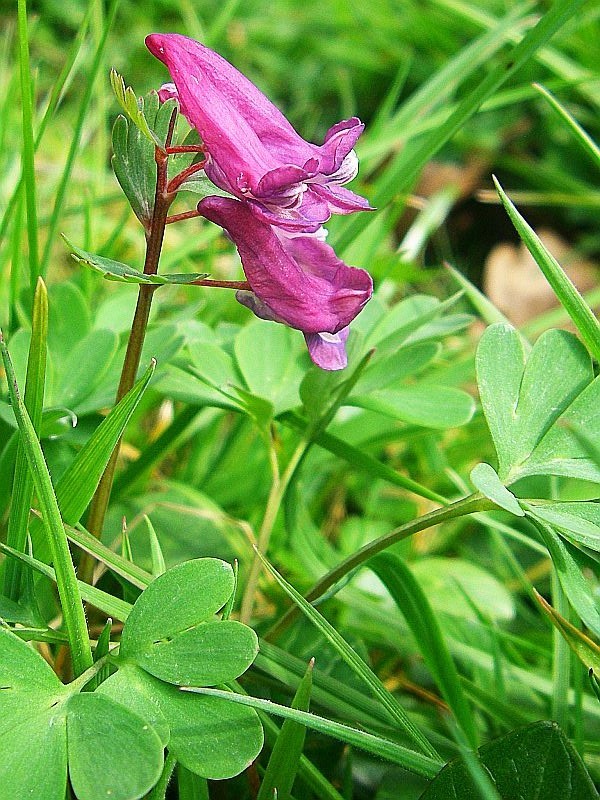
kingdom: Plantae
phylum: Tracheophyta
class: Magnoliopsida
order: Ranunculales
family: Papaveraceae
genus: Corydalis
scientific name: Corydalis solida
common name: Bird-in-a-bush
